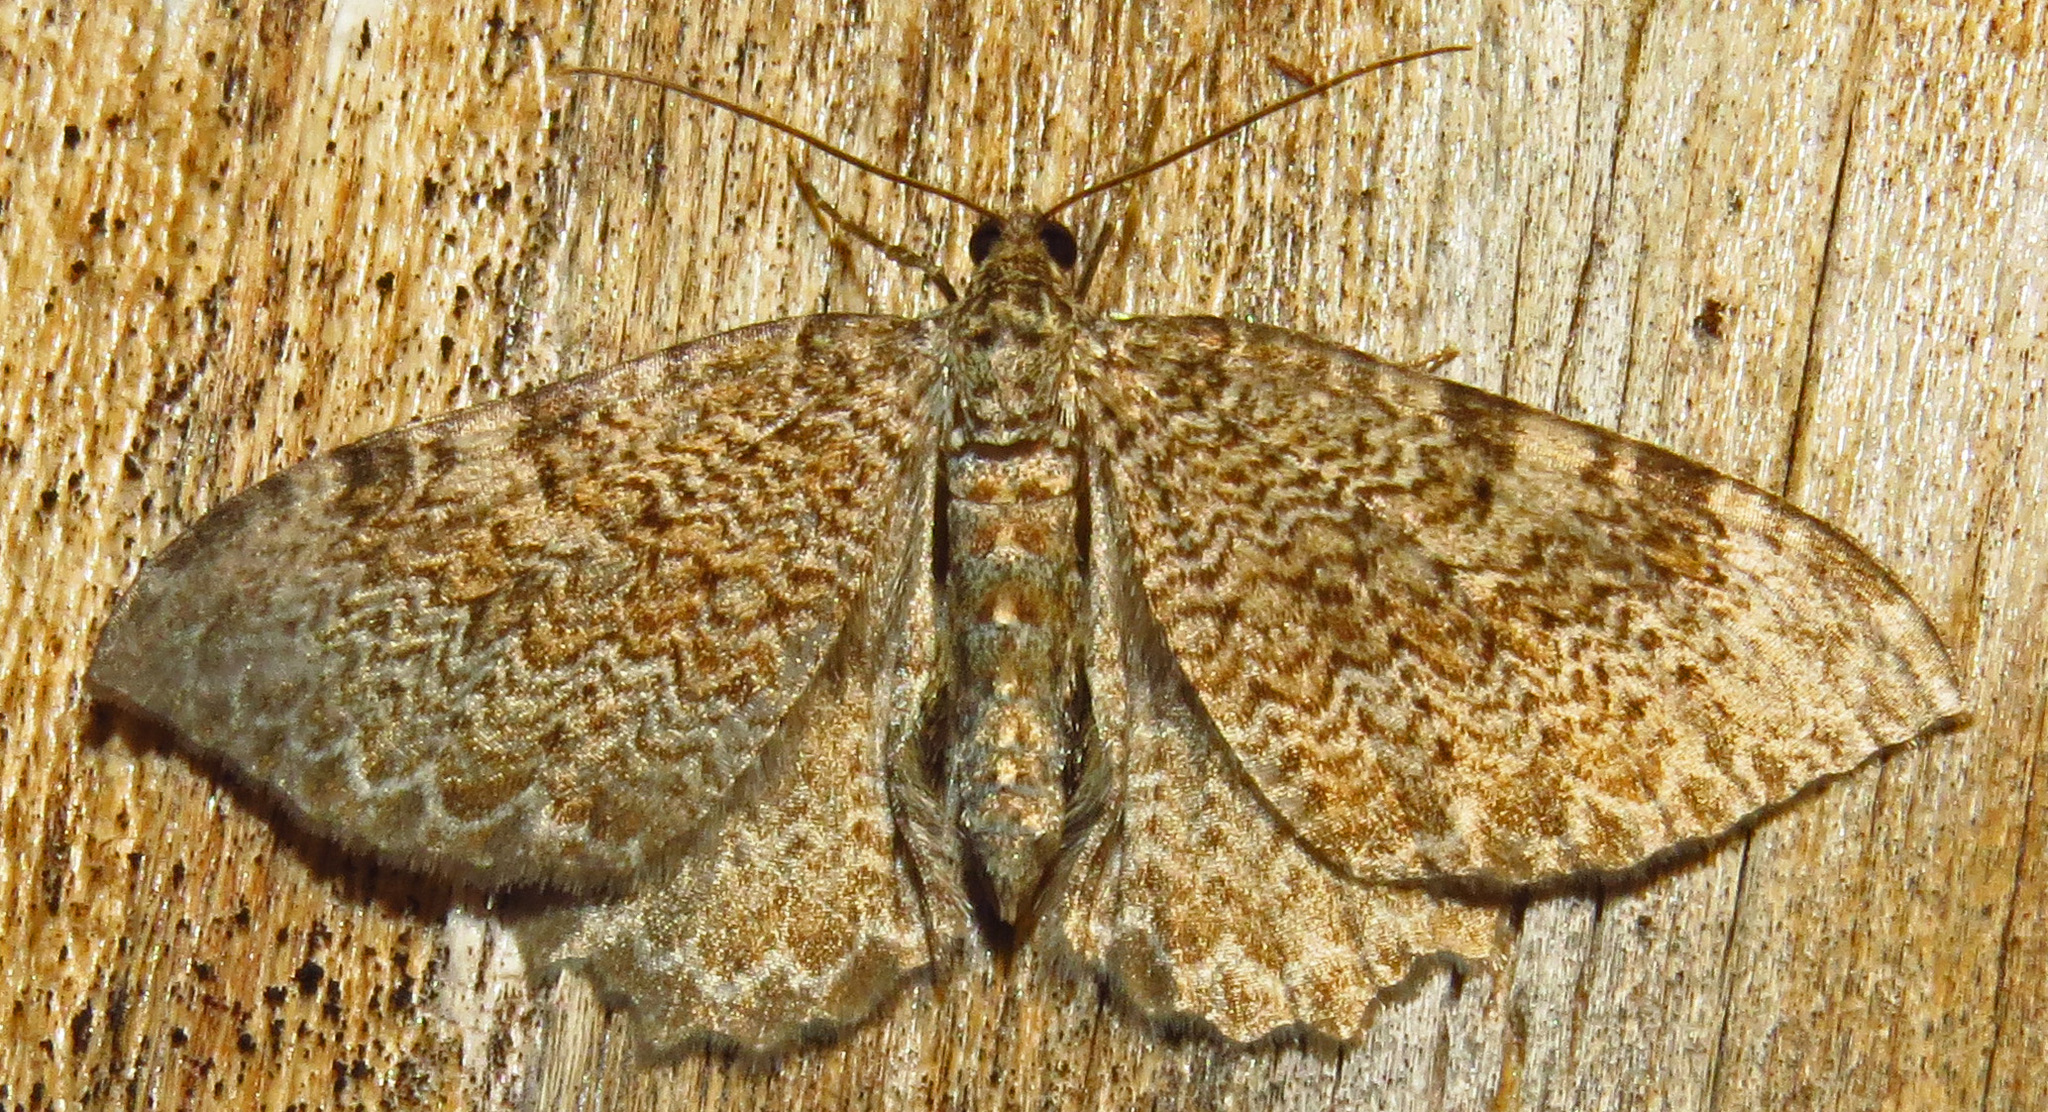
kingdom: Animalia
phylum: Arthropoda
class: Insecta
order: Lepidoptera
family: Geometridae
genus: Rheumaptera
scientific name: Rheumaptera
